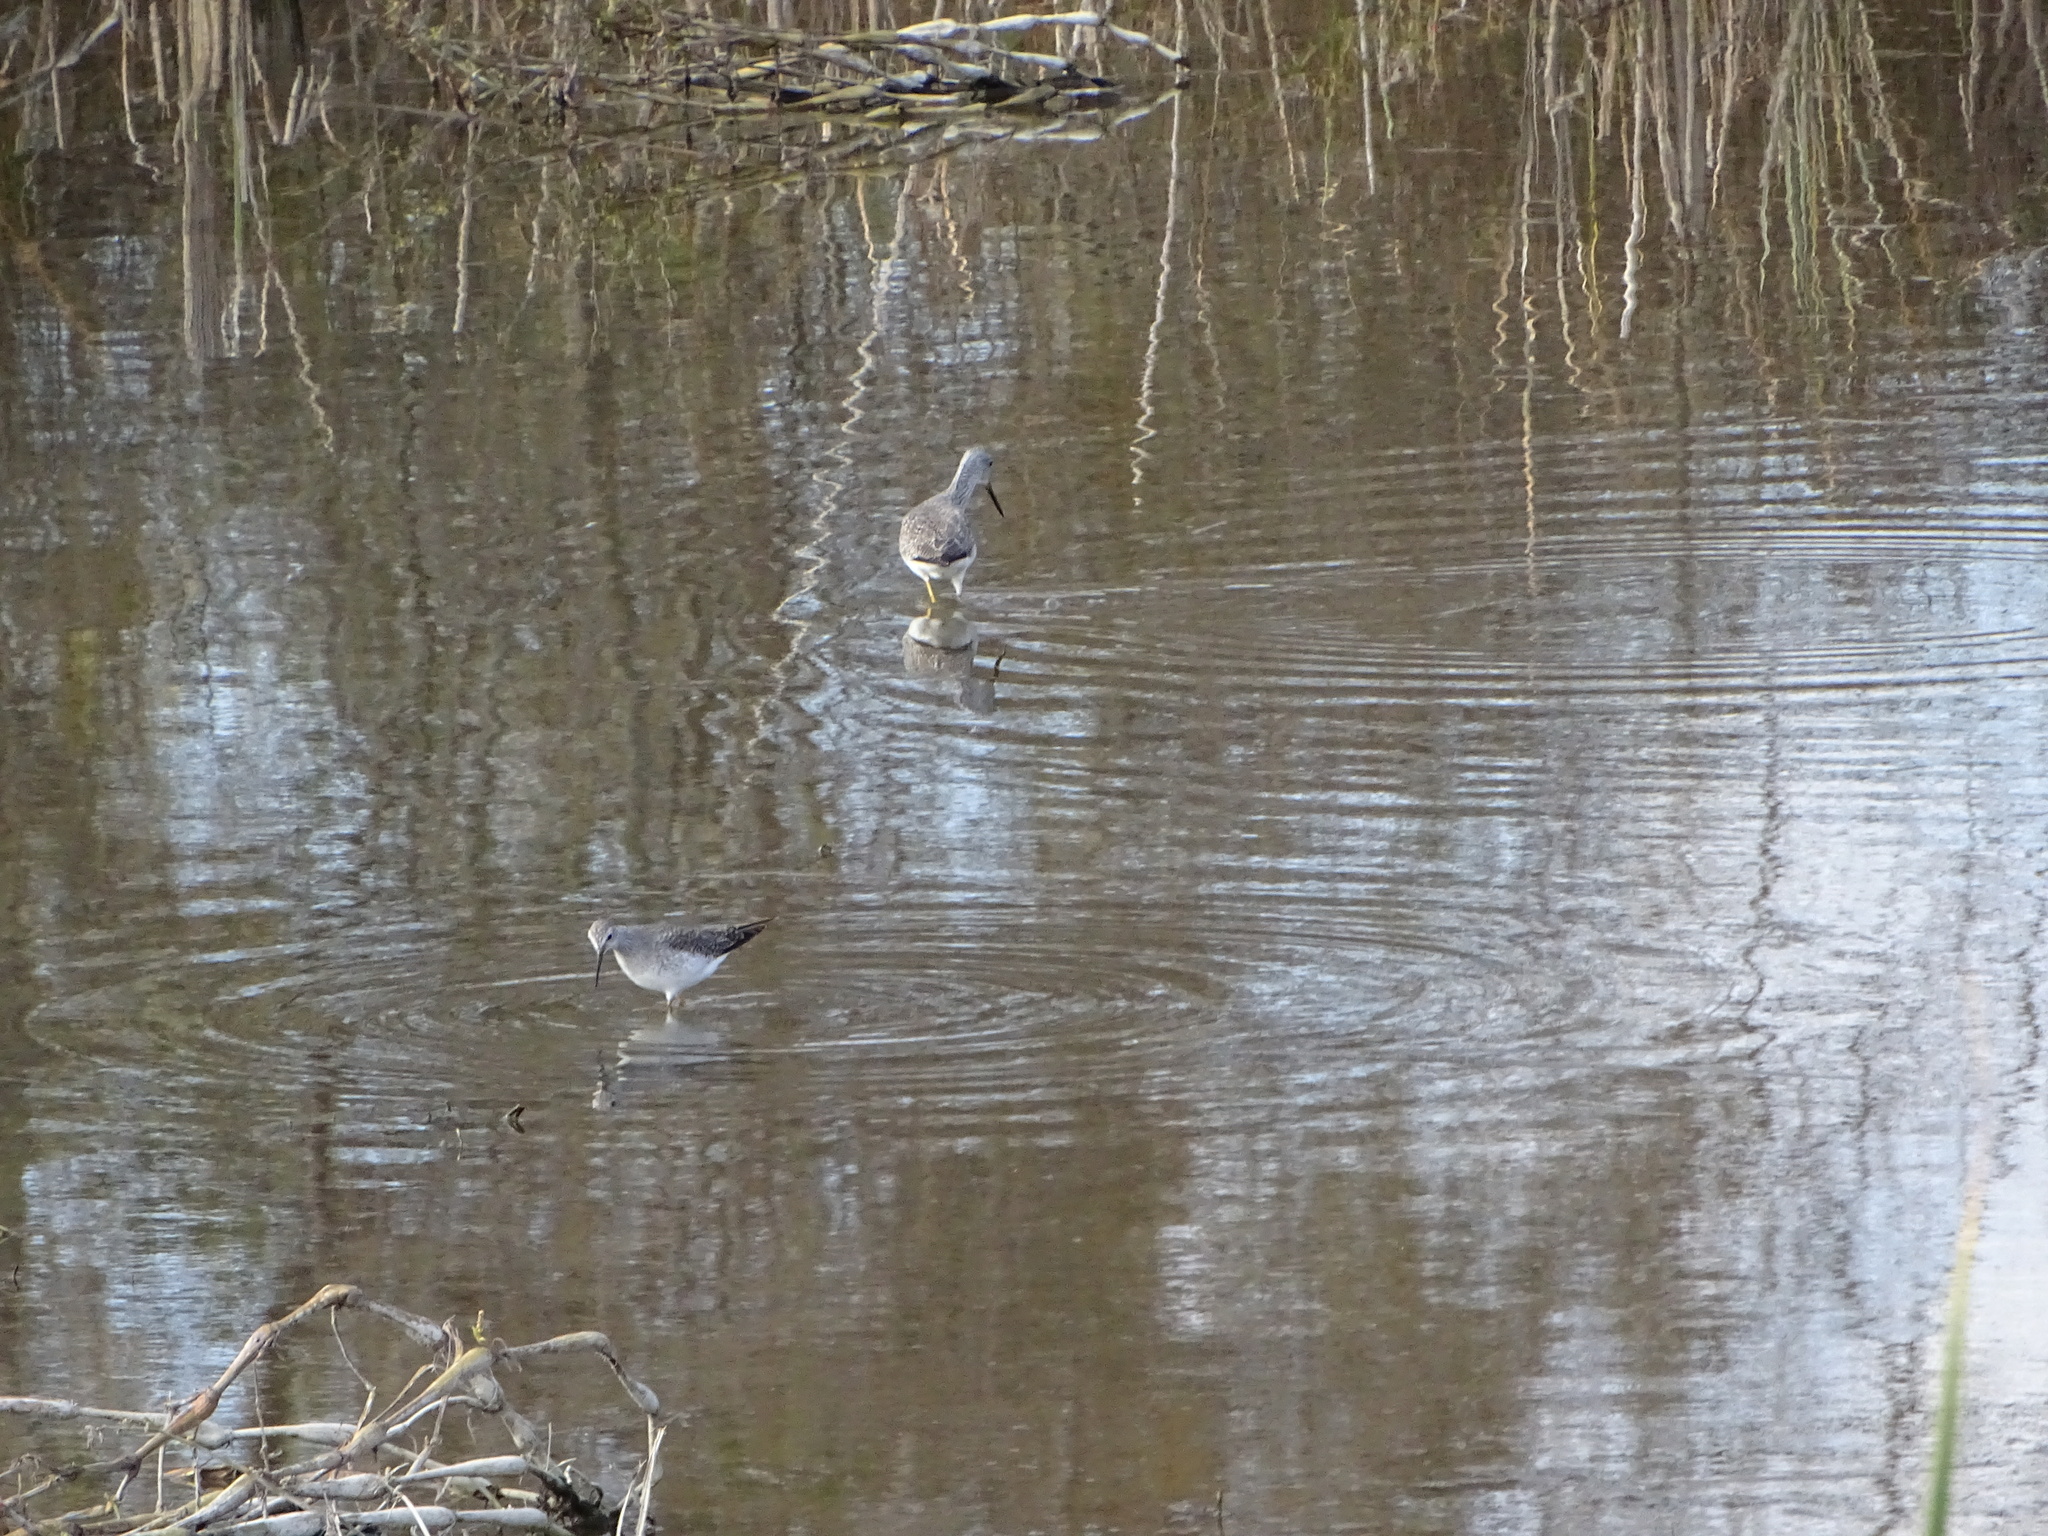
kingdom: Animalia
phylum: Chordata
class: Aves
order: Charadriiformes
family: Scolopacidae
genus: Tringa
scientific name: Tringa melanoleuca
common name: Greater yellowlegs
